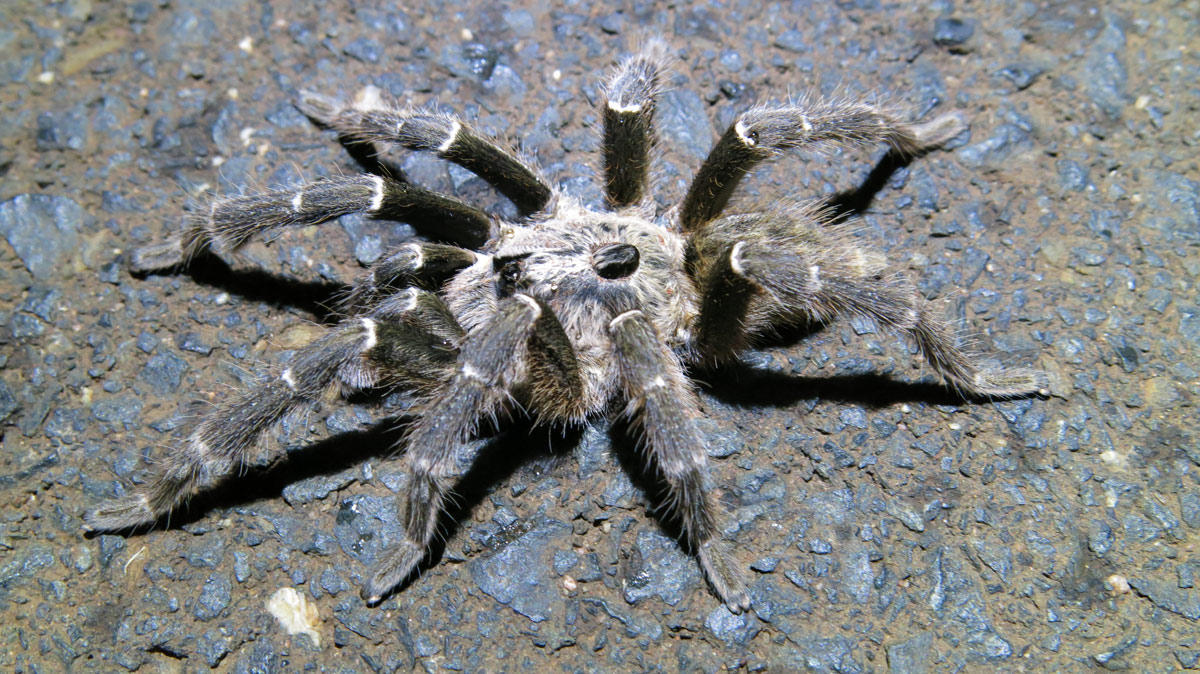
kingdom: Animalia
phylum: Arthropoda
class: Arachnida
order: Araneae
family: Theraphosidae
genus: Ceratogyrus
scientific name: Ceratogyrus darlingi
